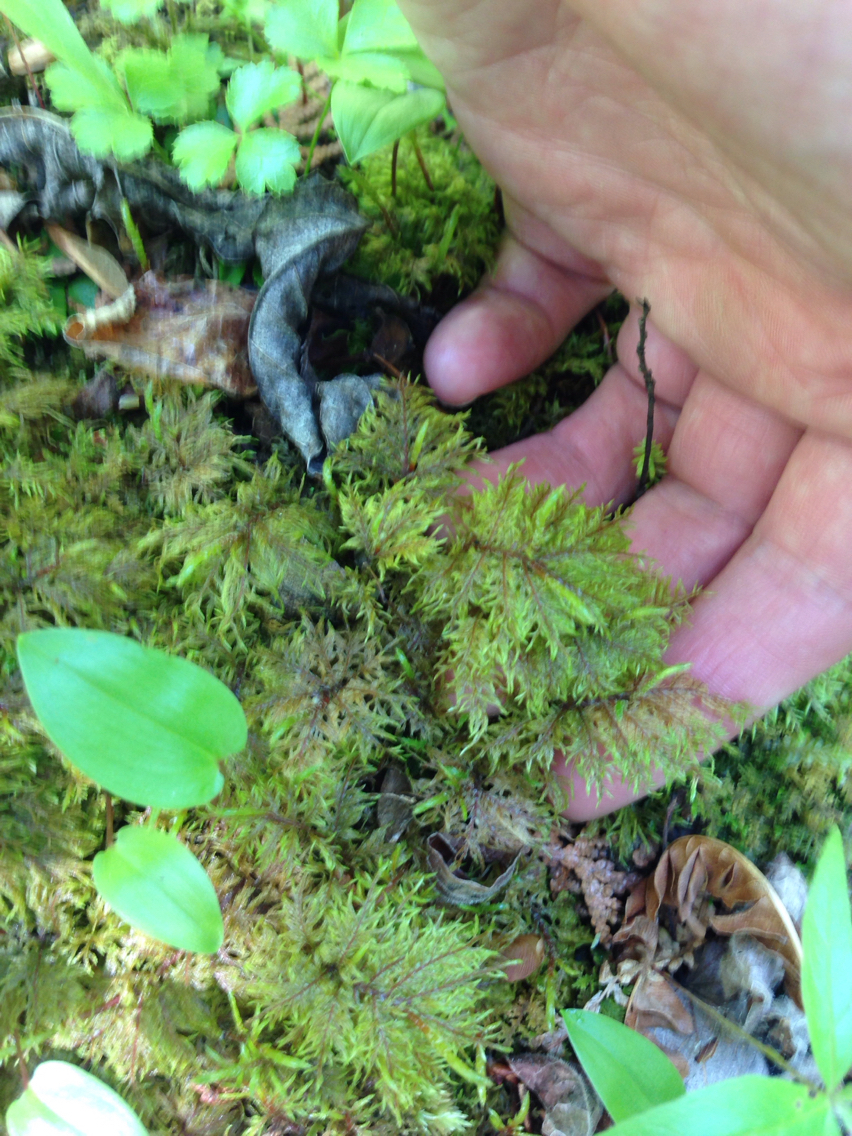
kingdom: Plantae
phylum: Bryophyta
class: Bryopsida
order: Hypnales
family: Hylocomiaceae
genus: Hylocomium
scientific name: Hylocomium splendens
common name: Stairstep moss
